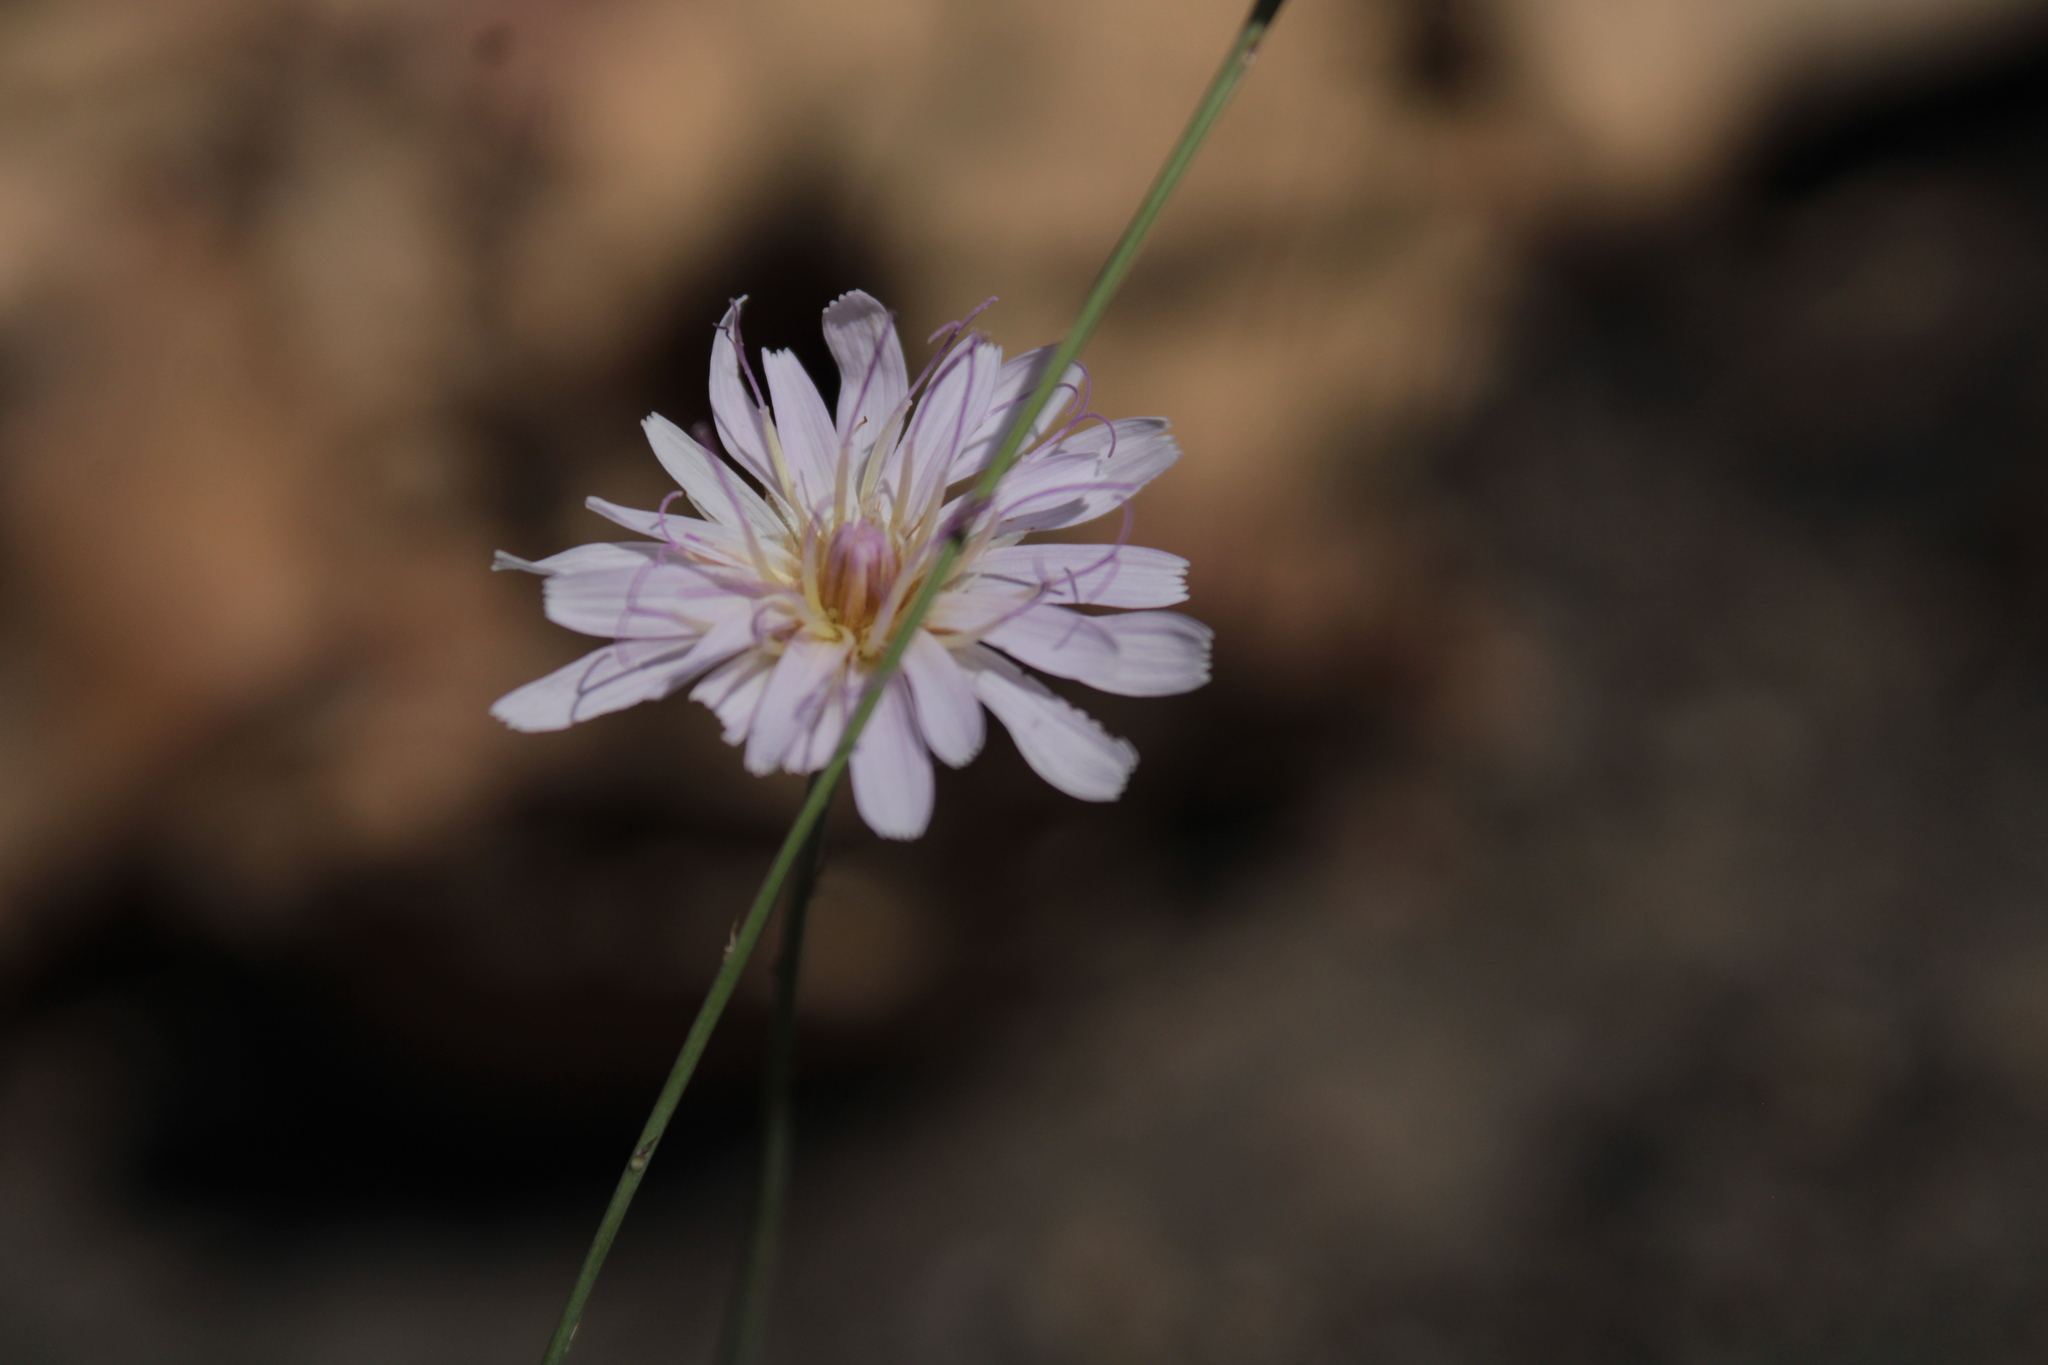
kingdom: Plantae
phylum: Tracheophyta
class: Magnoliopsida
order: Asterales
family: Asteraceae
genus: Pinaropappus
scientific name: Pinaropappus roseus
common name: Rock-lettuce
